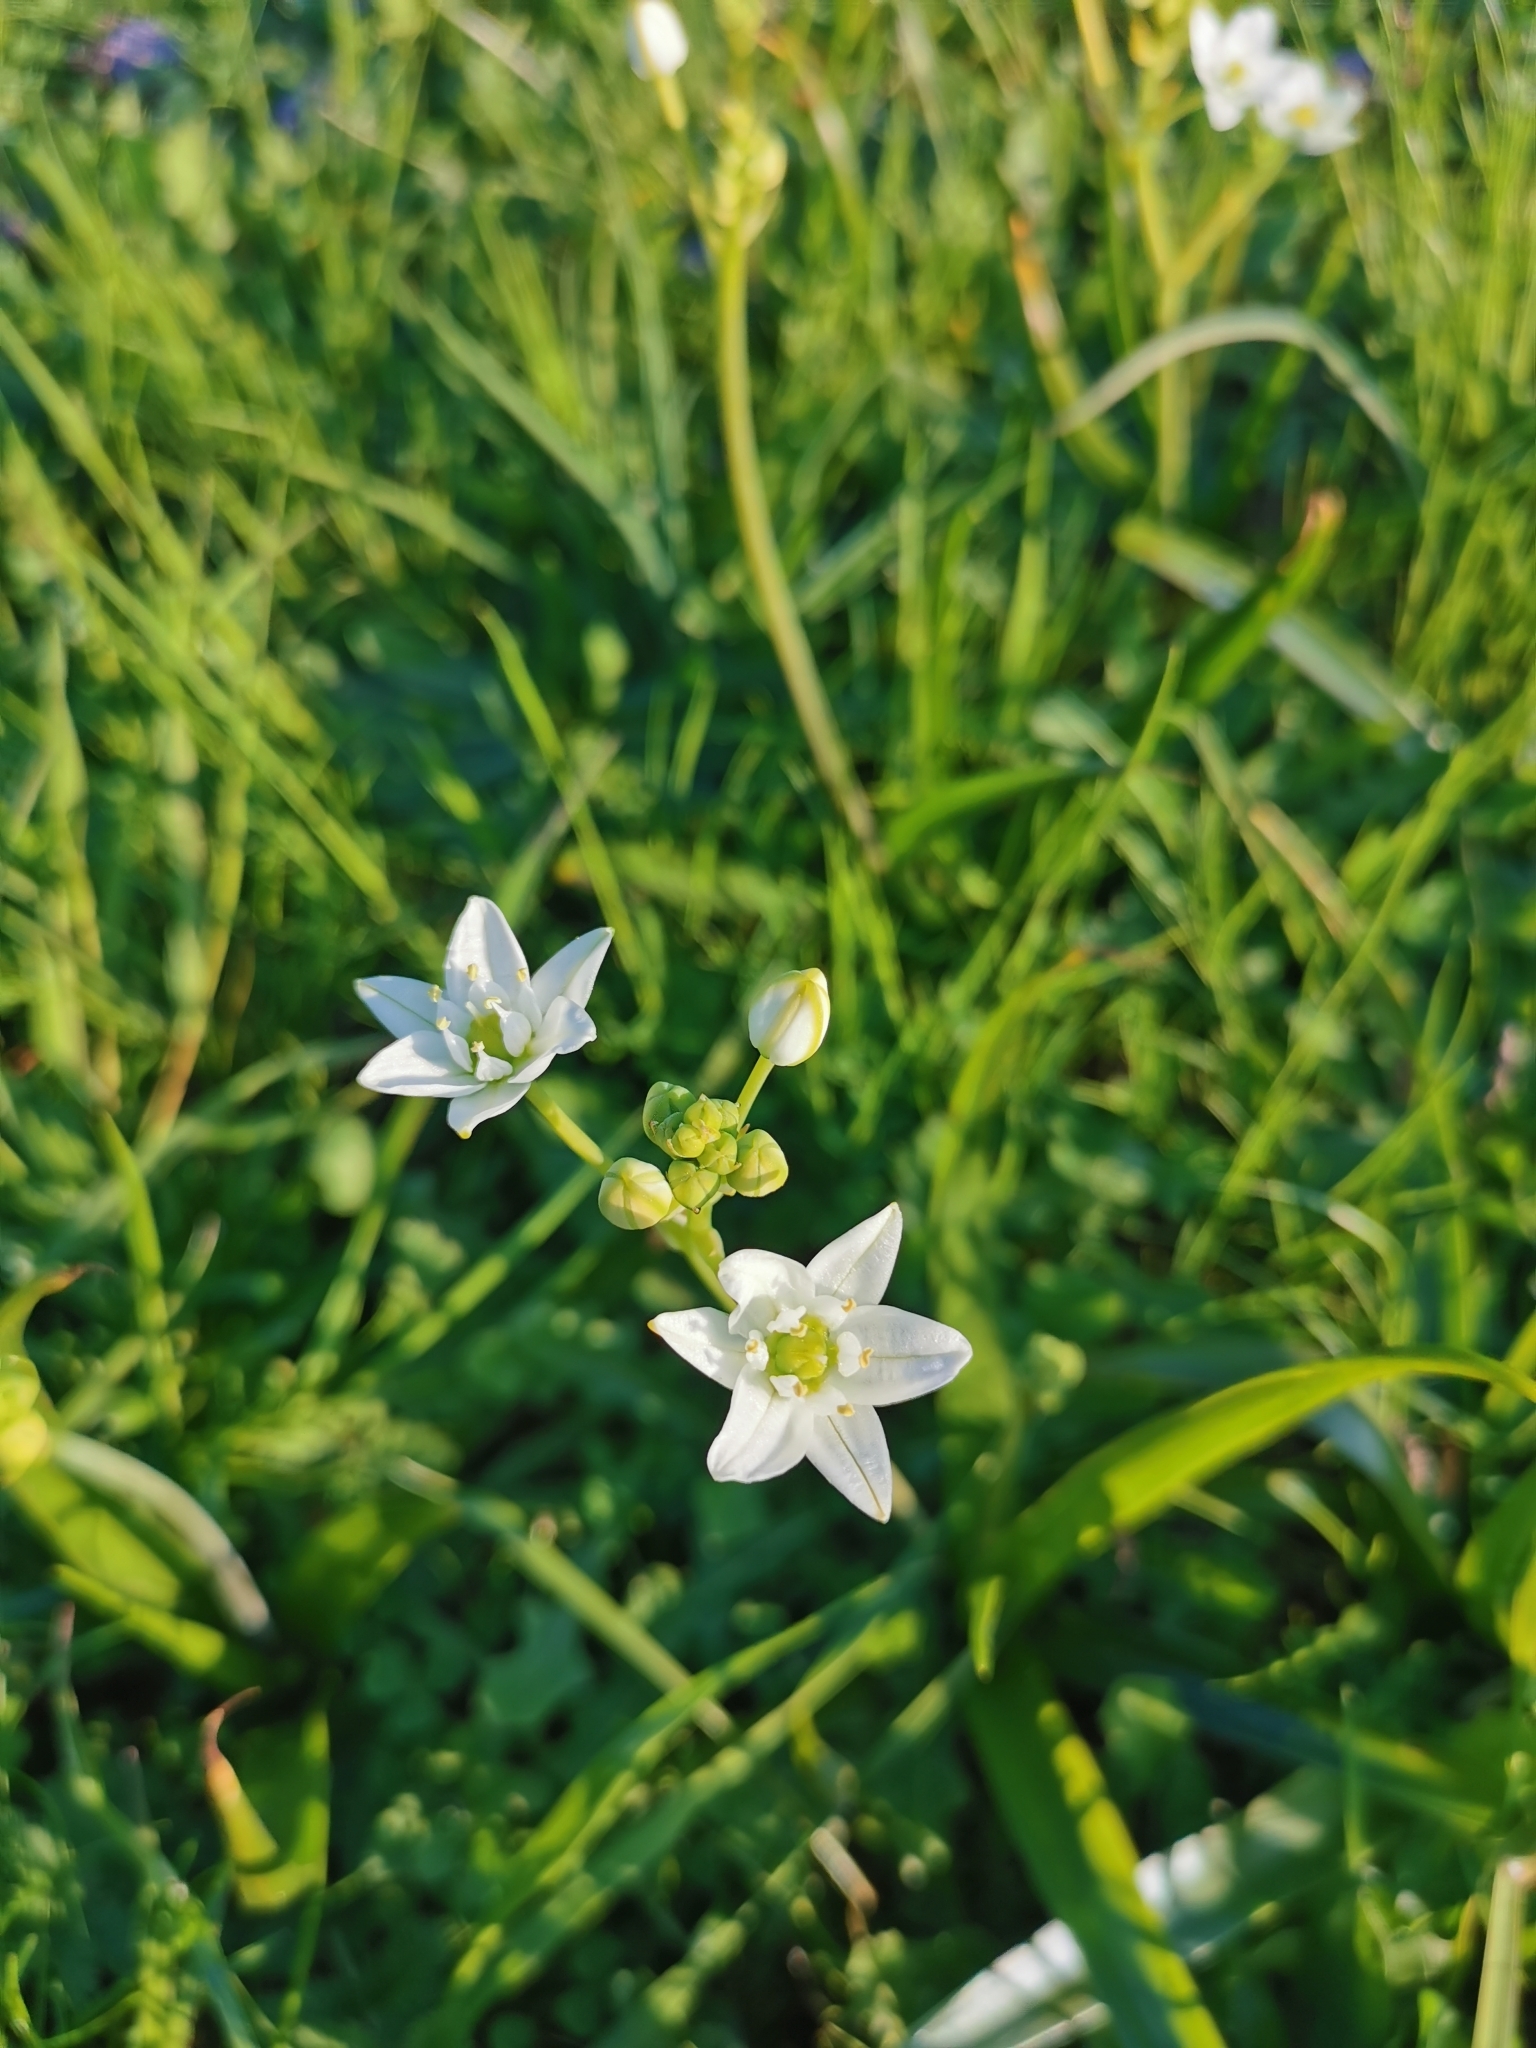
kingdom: Plantae
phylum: Tracheophyta
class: Liliopsida
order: Asparagales
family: Asparagaceae
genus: Oziroe
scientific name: Oziroe arida
